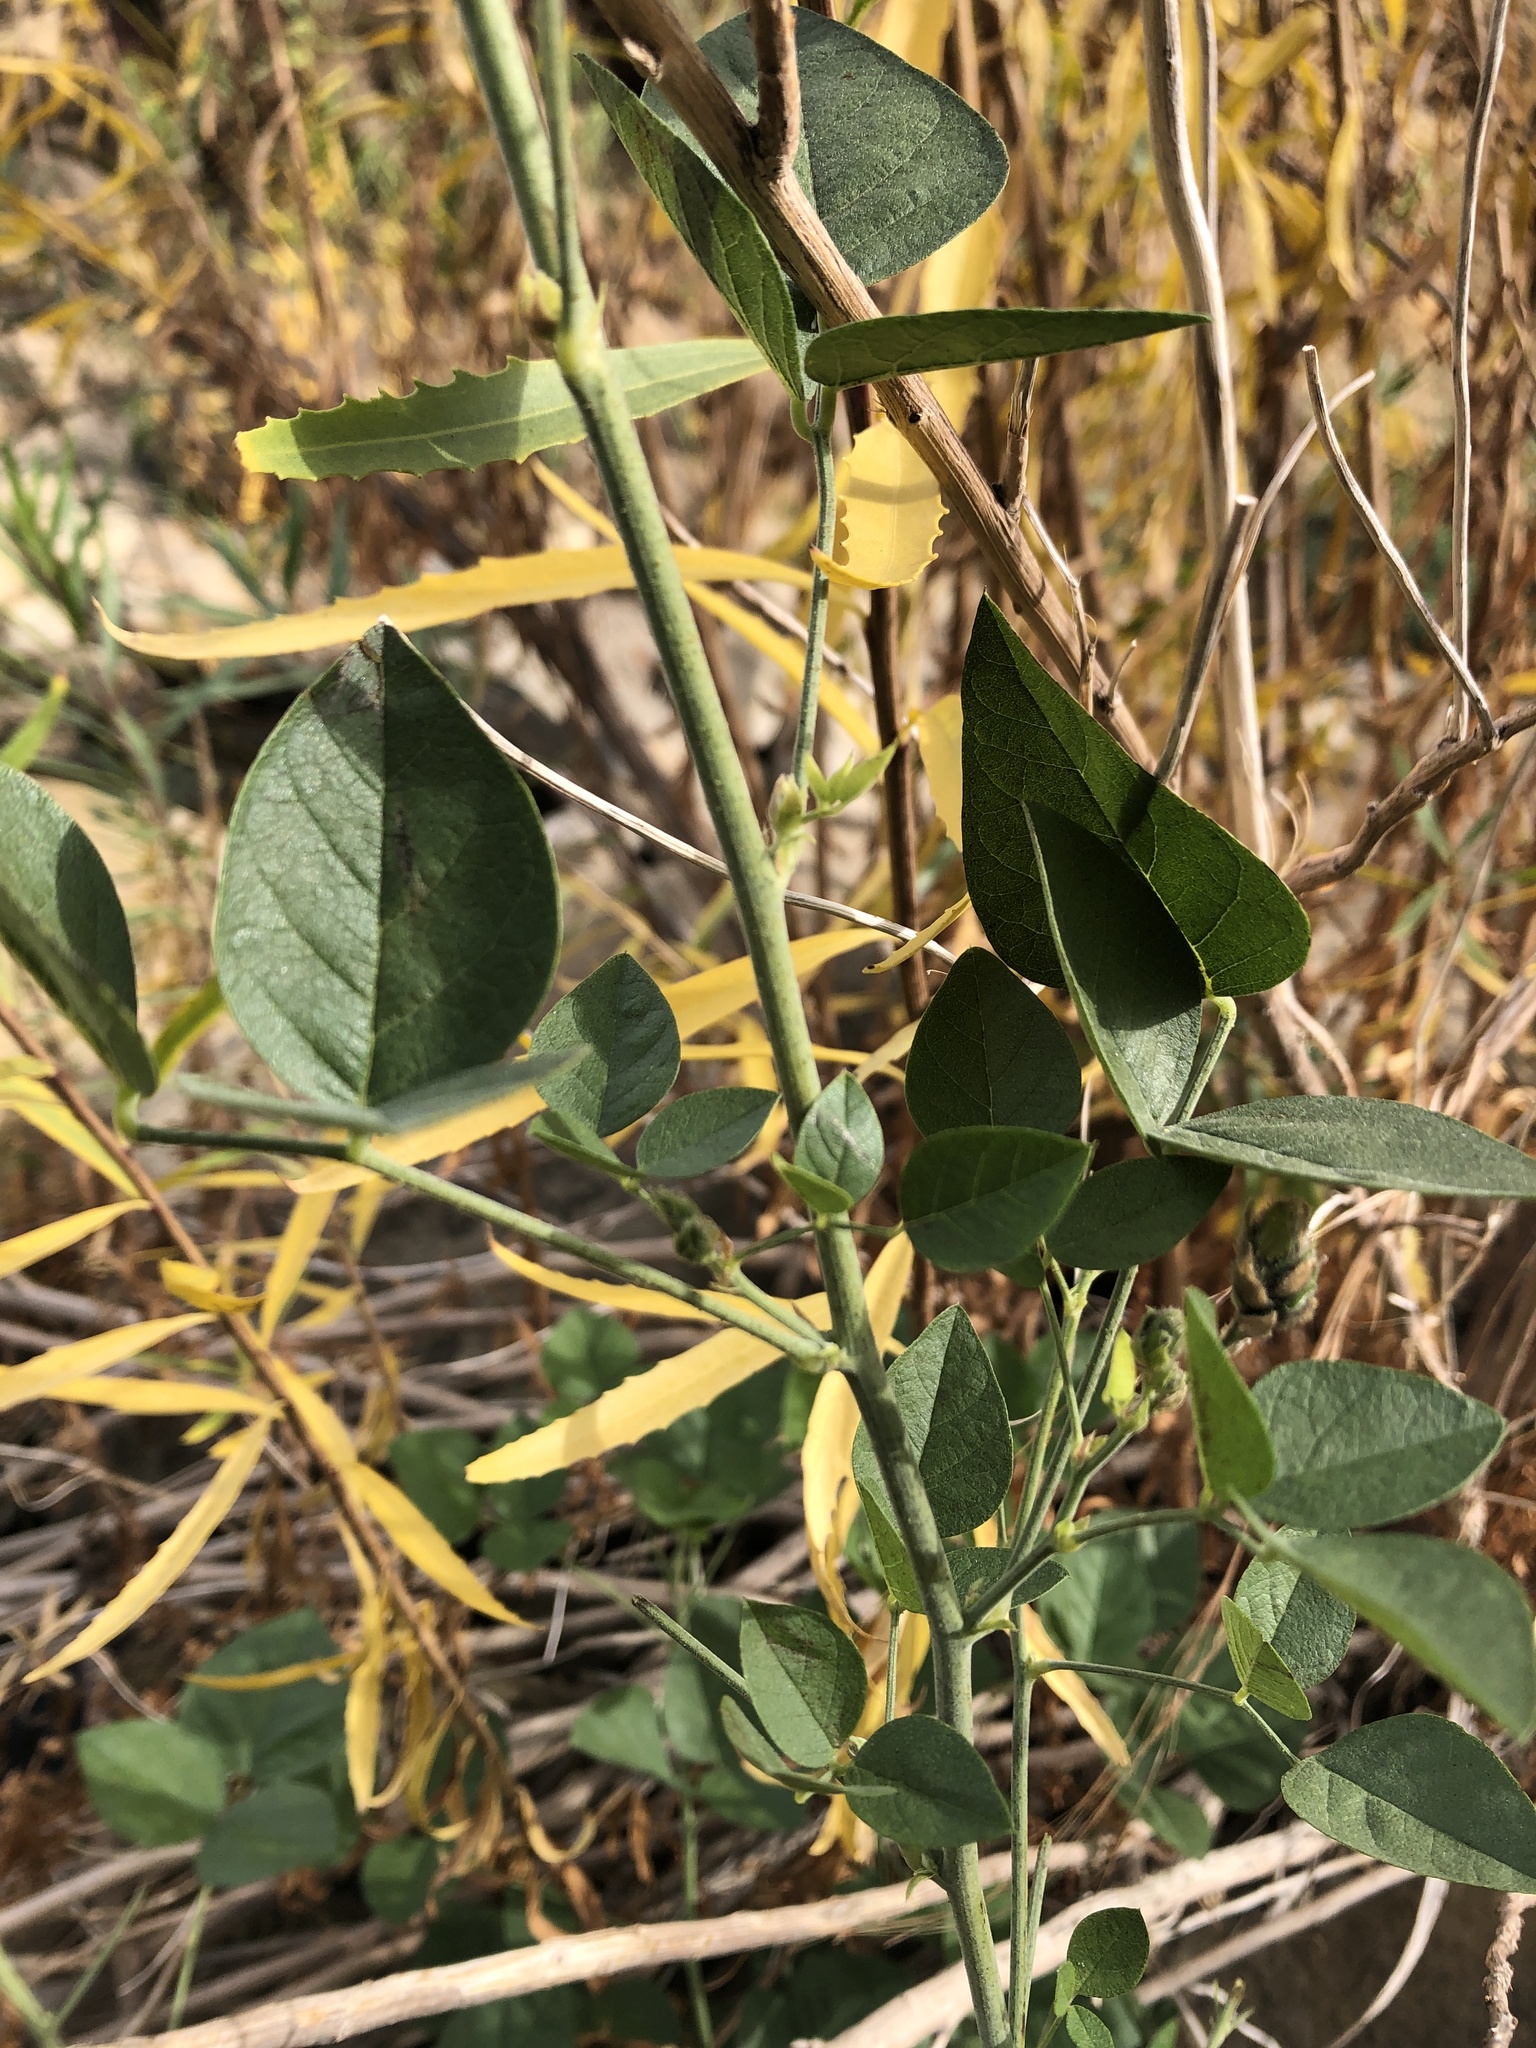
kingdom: Plantae
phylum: Tracheophyta
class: Magnoliopsida
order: Fabales
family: Fabaceae
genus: Hoita
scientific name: Hoita macrostachya
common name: Leatherroot
